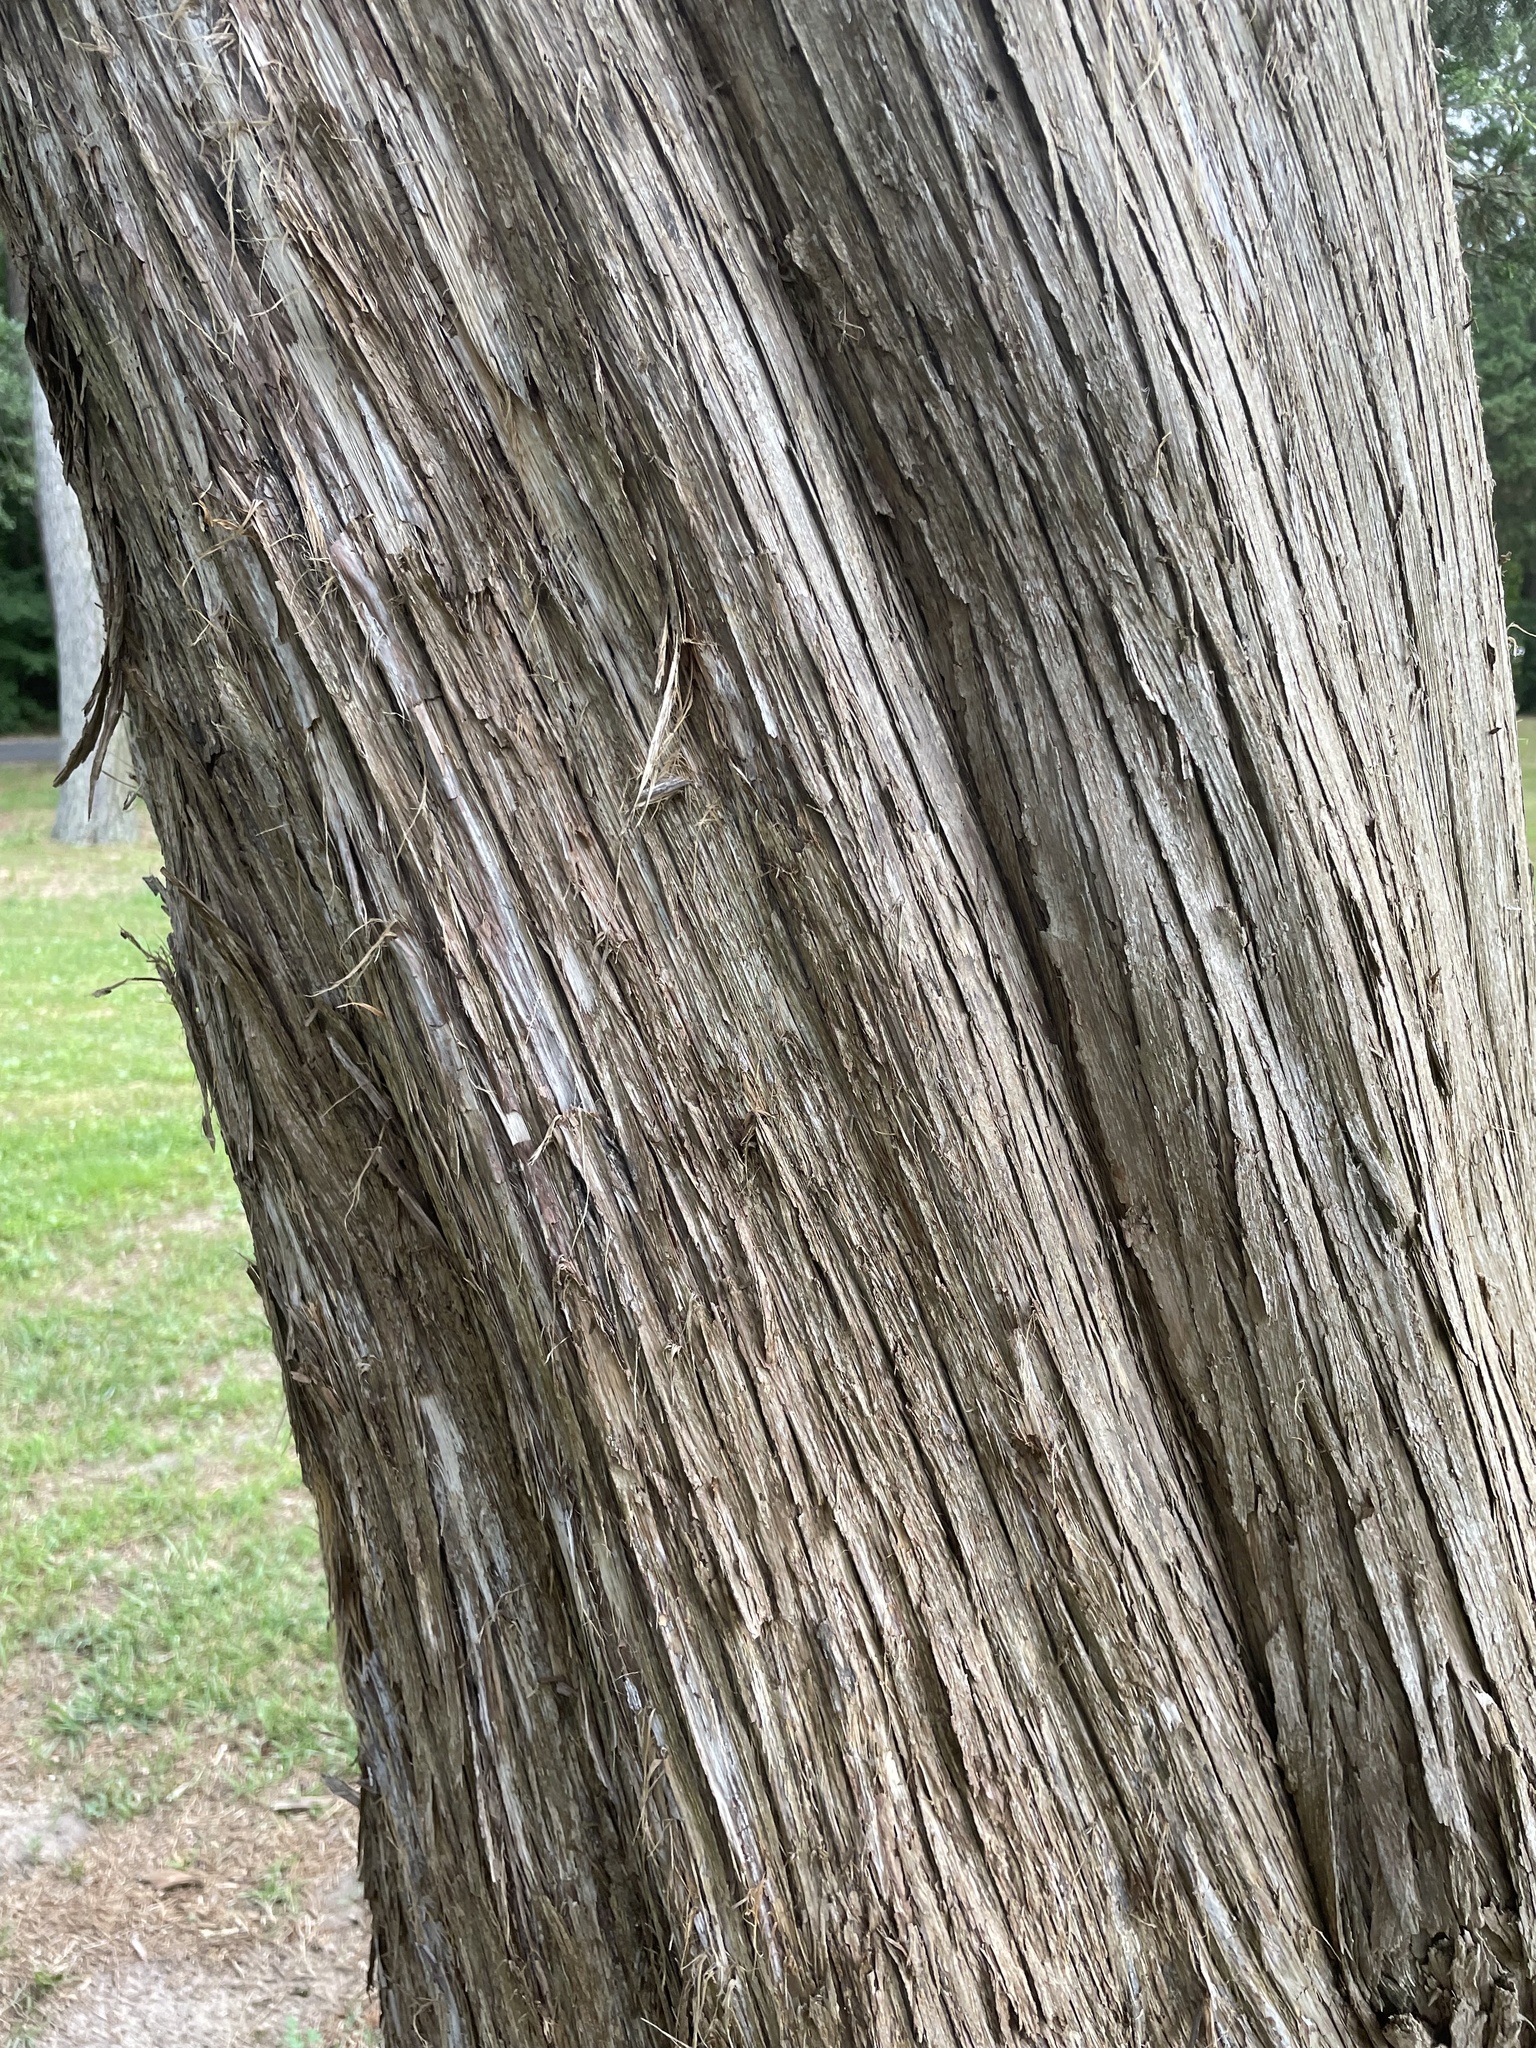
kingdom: Plantae
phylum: Tracheophyta
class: Pinopsida
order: Pinales
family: Cupressaceae
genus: Juniperus
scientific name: Juniperus virginiana
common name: Red juniper
